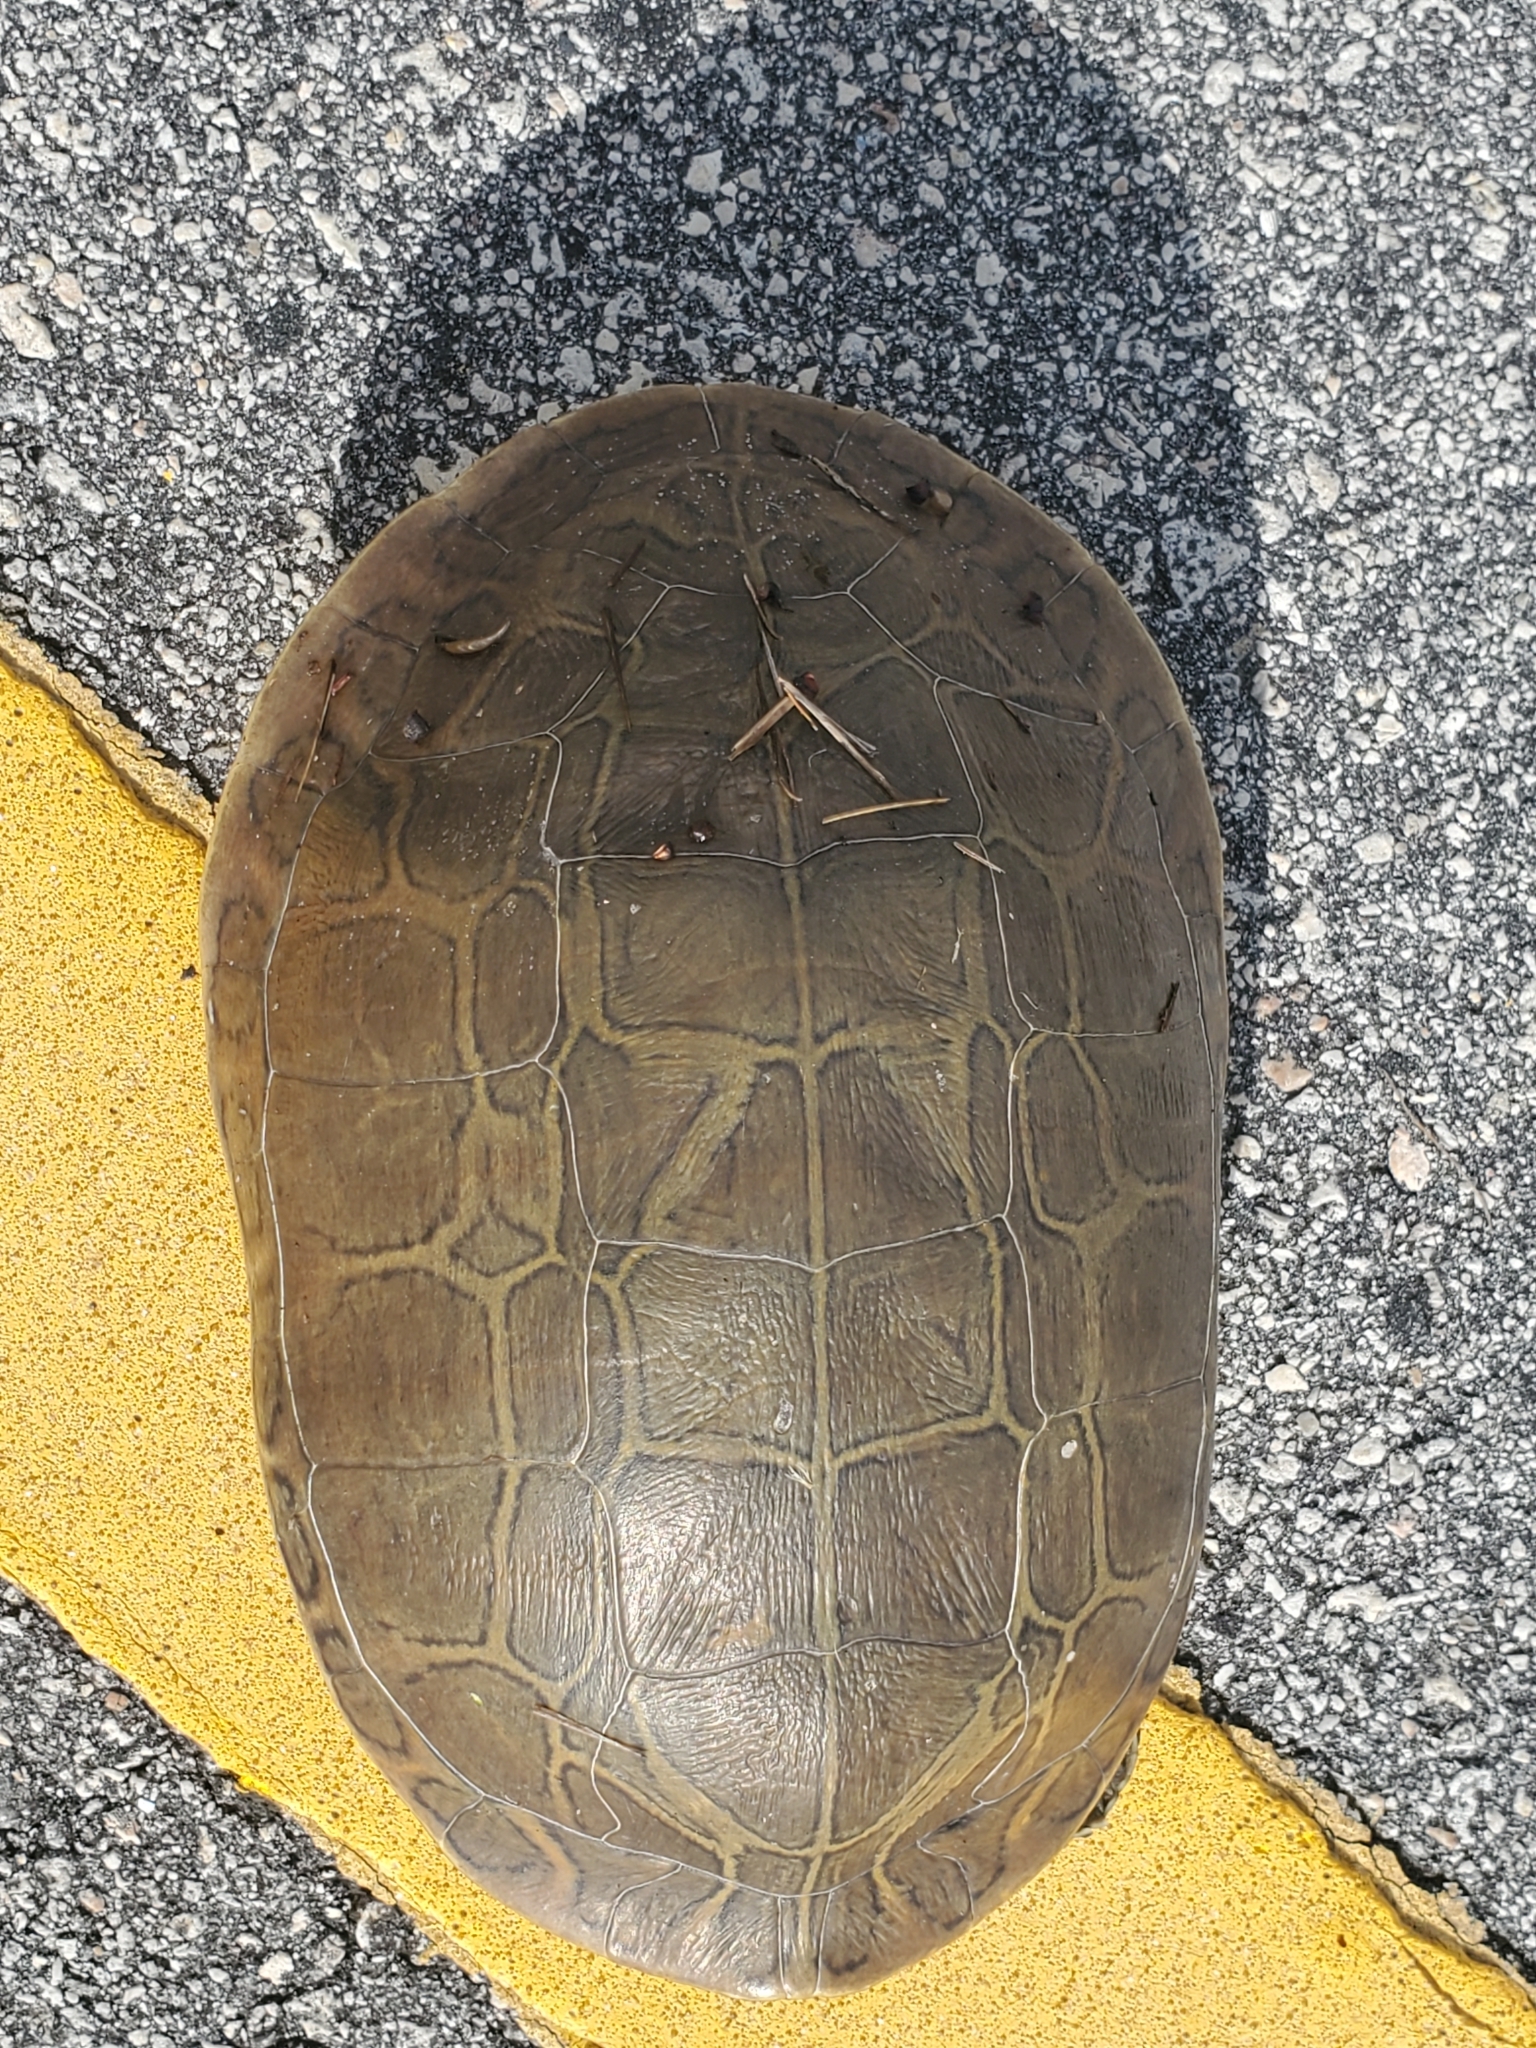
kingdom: Animalia
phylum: Chordata
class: Testudines
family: Emydidae
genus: Deirochelys
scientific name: Deirochelys reticularia
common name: Chicken turtle
